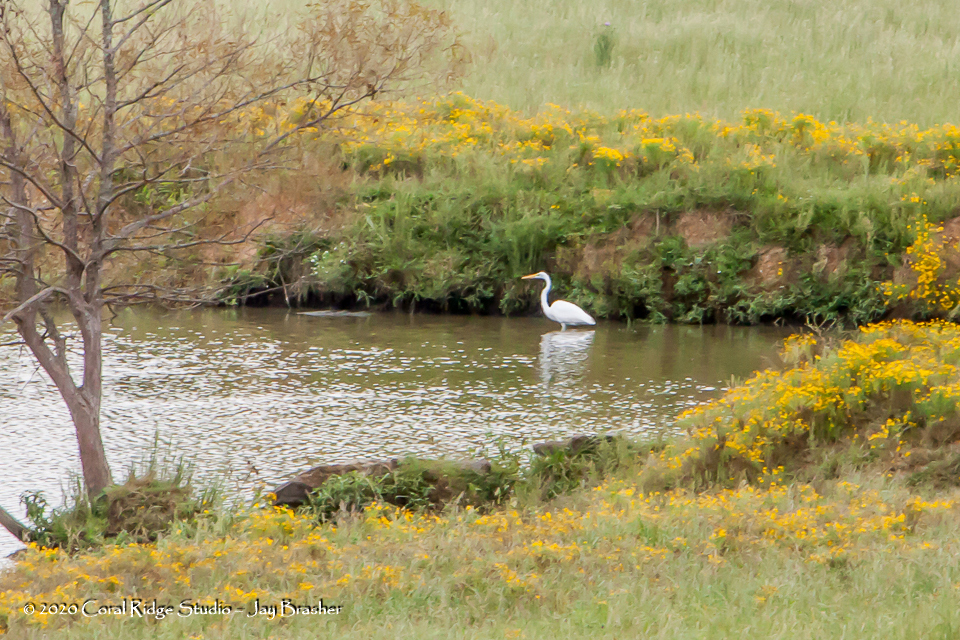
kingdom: Animalia
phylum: Chordata
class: Aves
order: Pelecaniformes
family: Ardeidae
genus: Ardea
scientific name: Ardea alba
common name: Great egret
